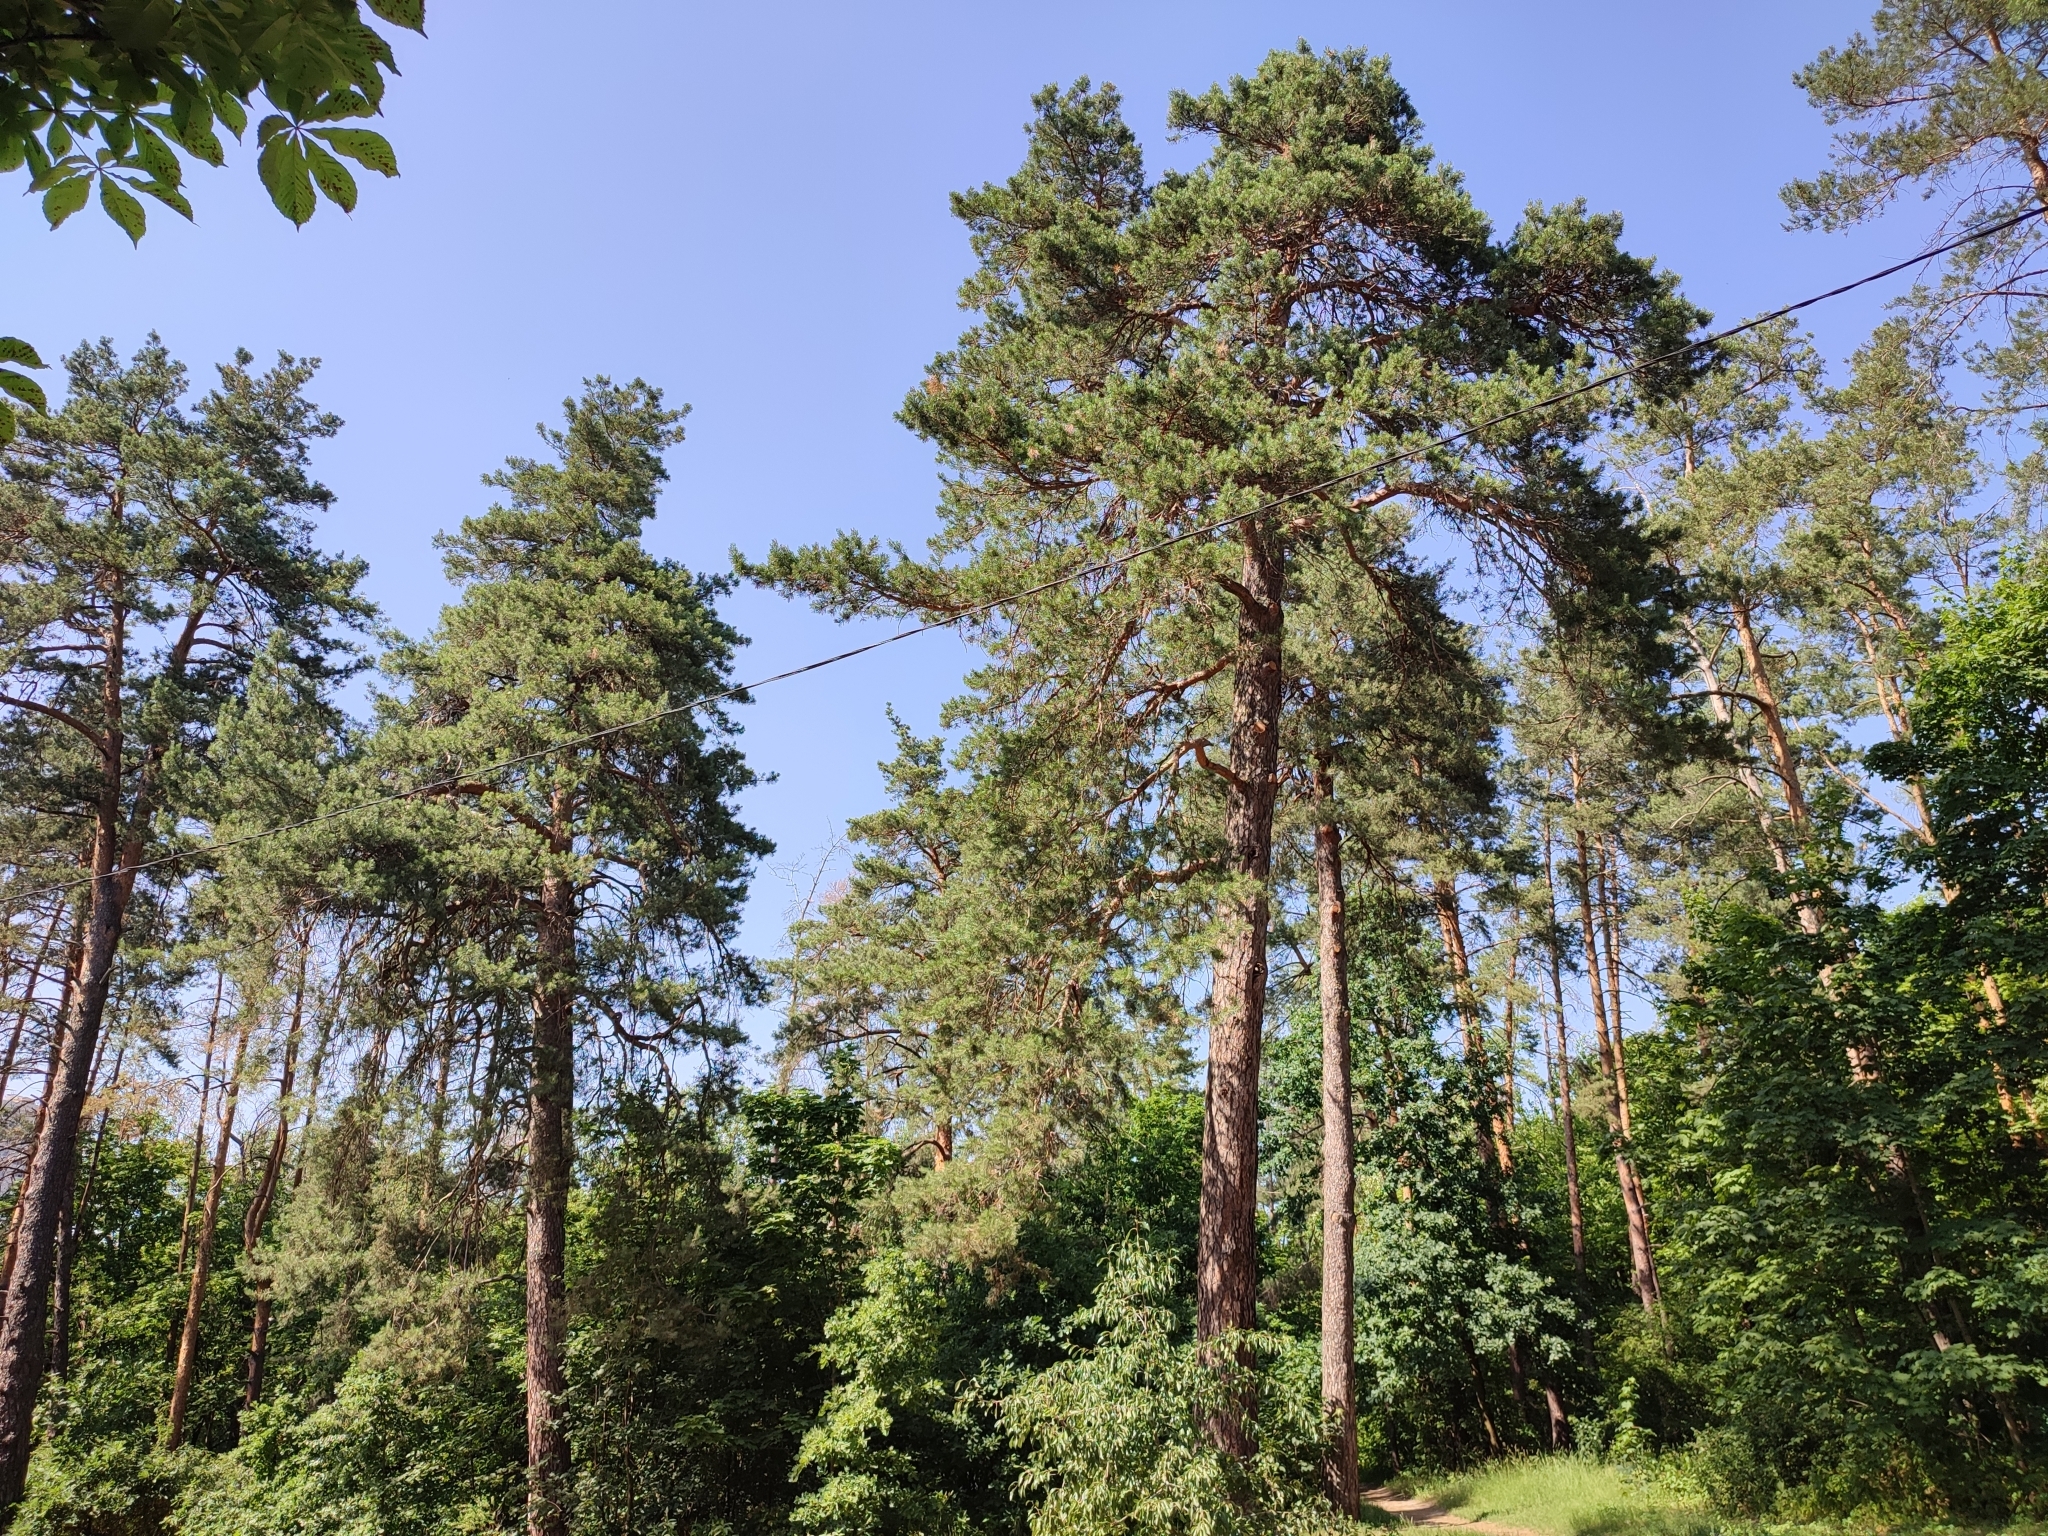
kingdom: Plantae
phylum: Tracheophyta
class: Pinopsida
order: Pinales
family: Pinaceae
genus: Pinus
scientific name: Pinus sylvestris
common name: Scots pine
